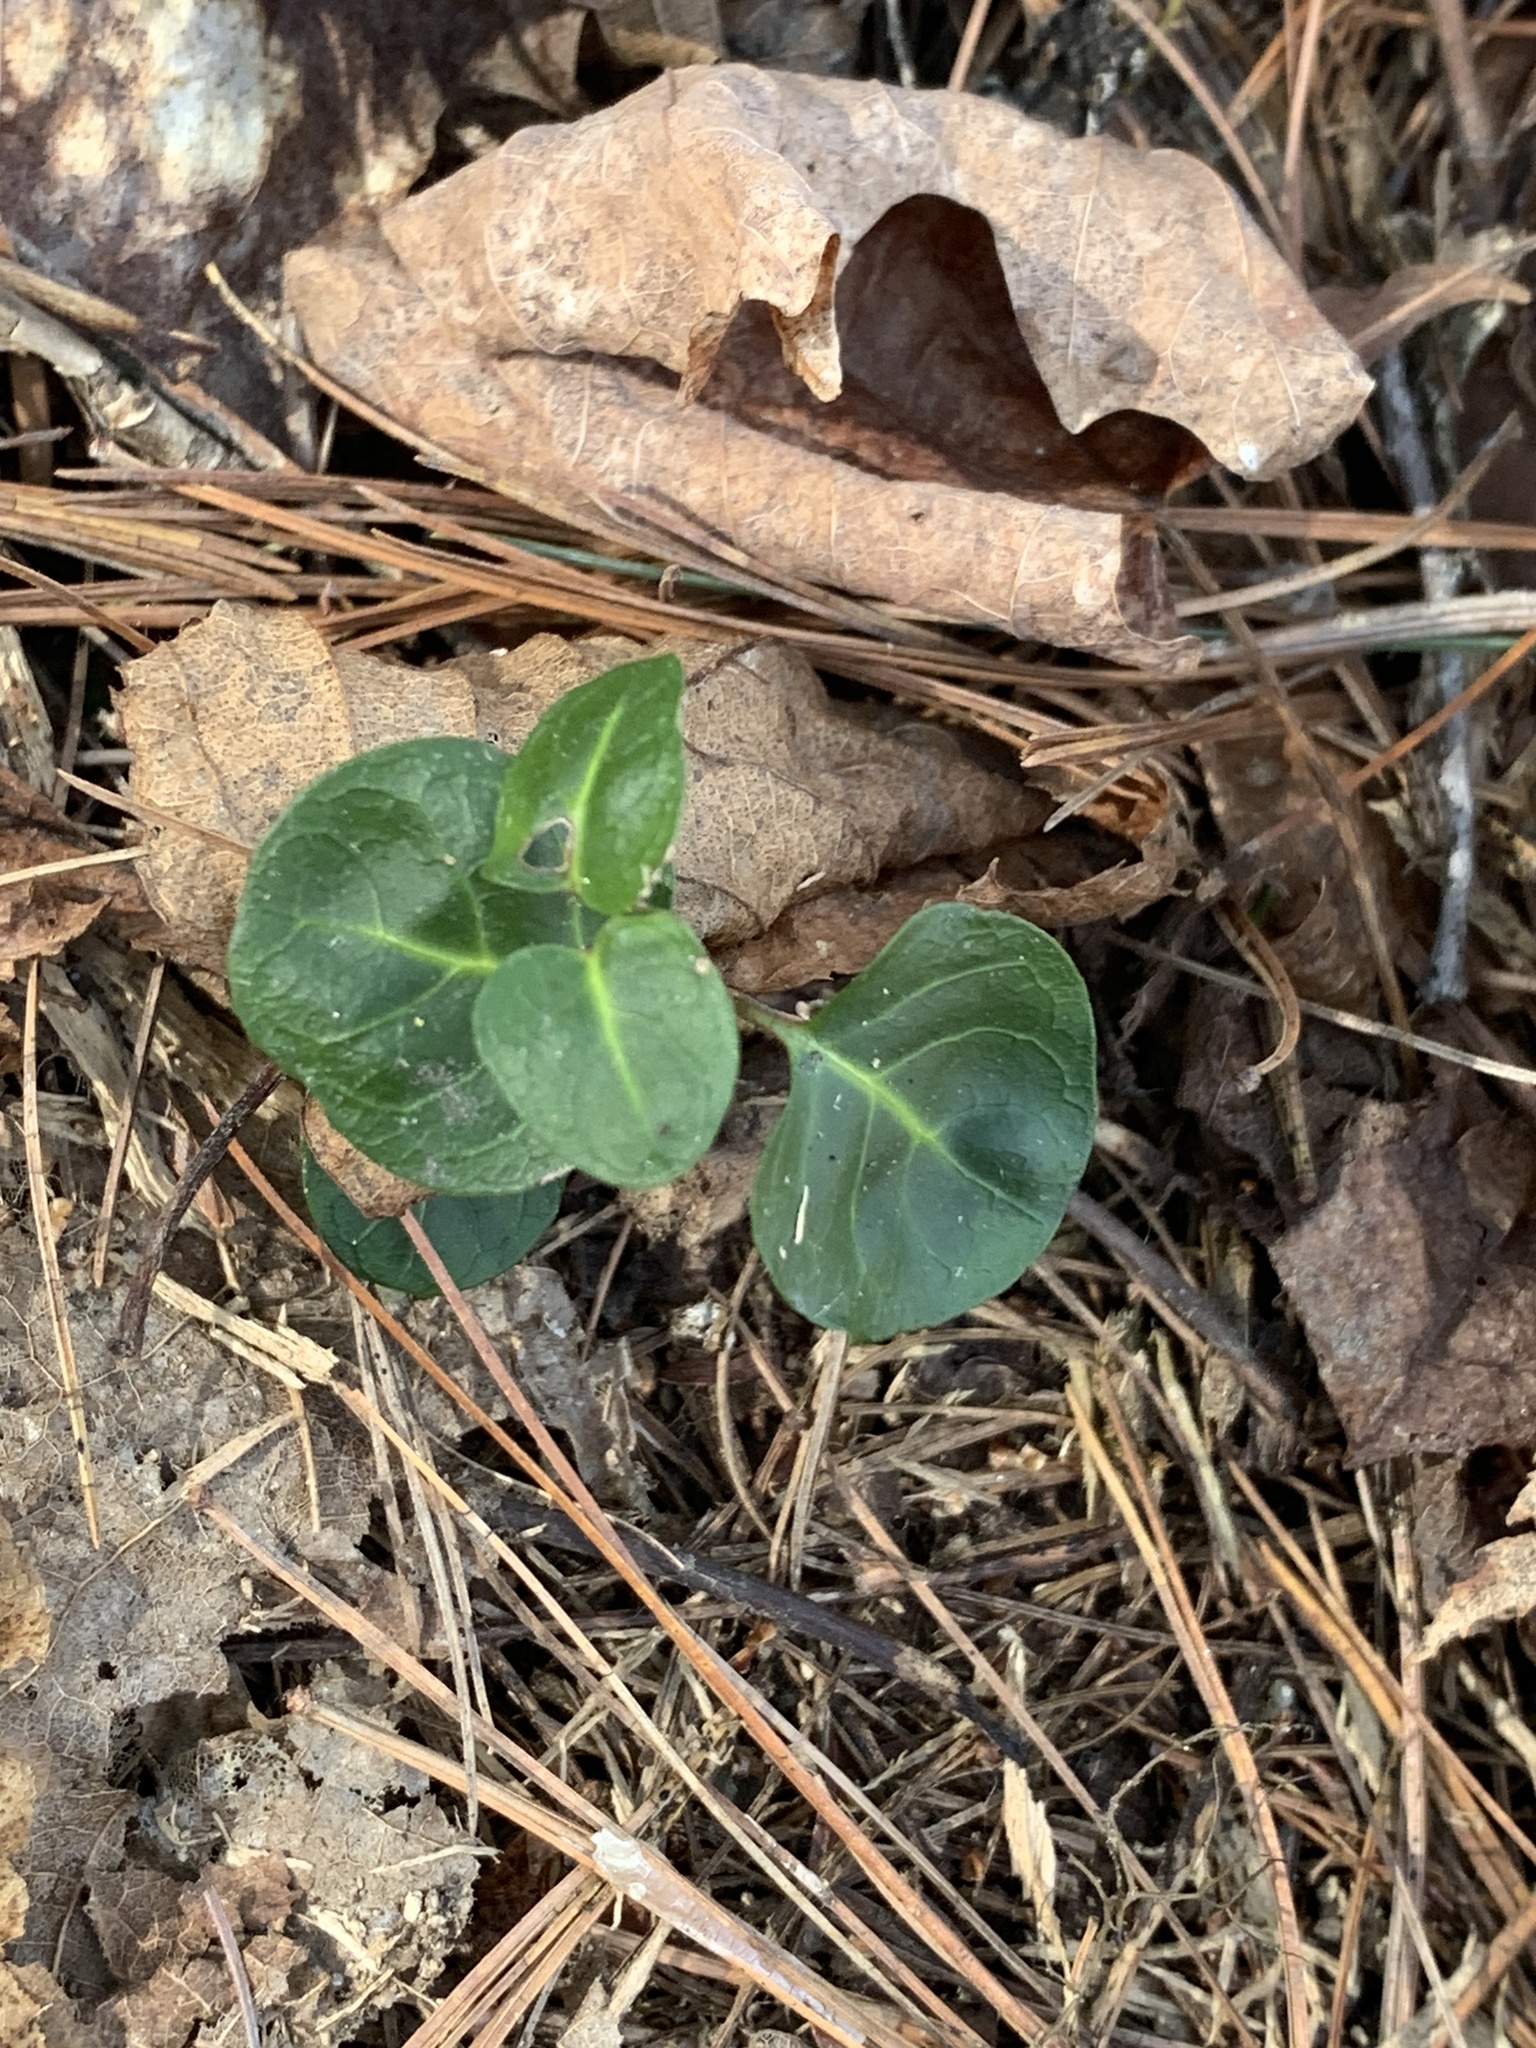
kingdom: Plantae
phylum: Tracheophyta
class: Magnoliopsida
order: Gentianales
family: Rubiaceae
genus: Mitchella
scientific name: Mitchella repens
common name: Partridge-berry
